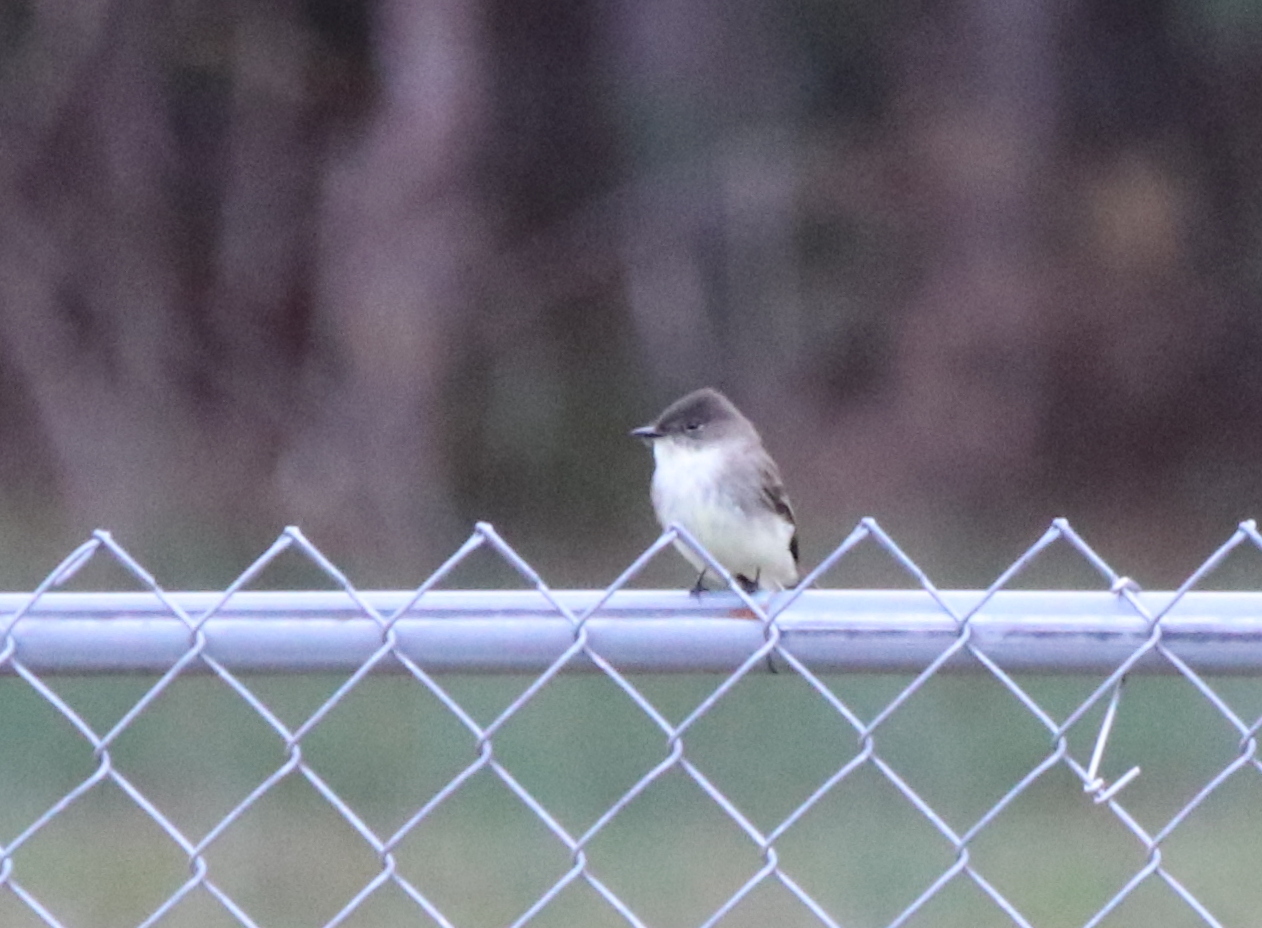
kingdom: Animalia
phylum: Chordata
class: Aves
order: Passeriformes
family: Tyrannidae
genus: Sayornis
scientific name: Sayornis phoebe
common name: Eastern phoebe
